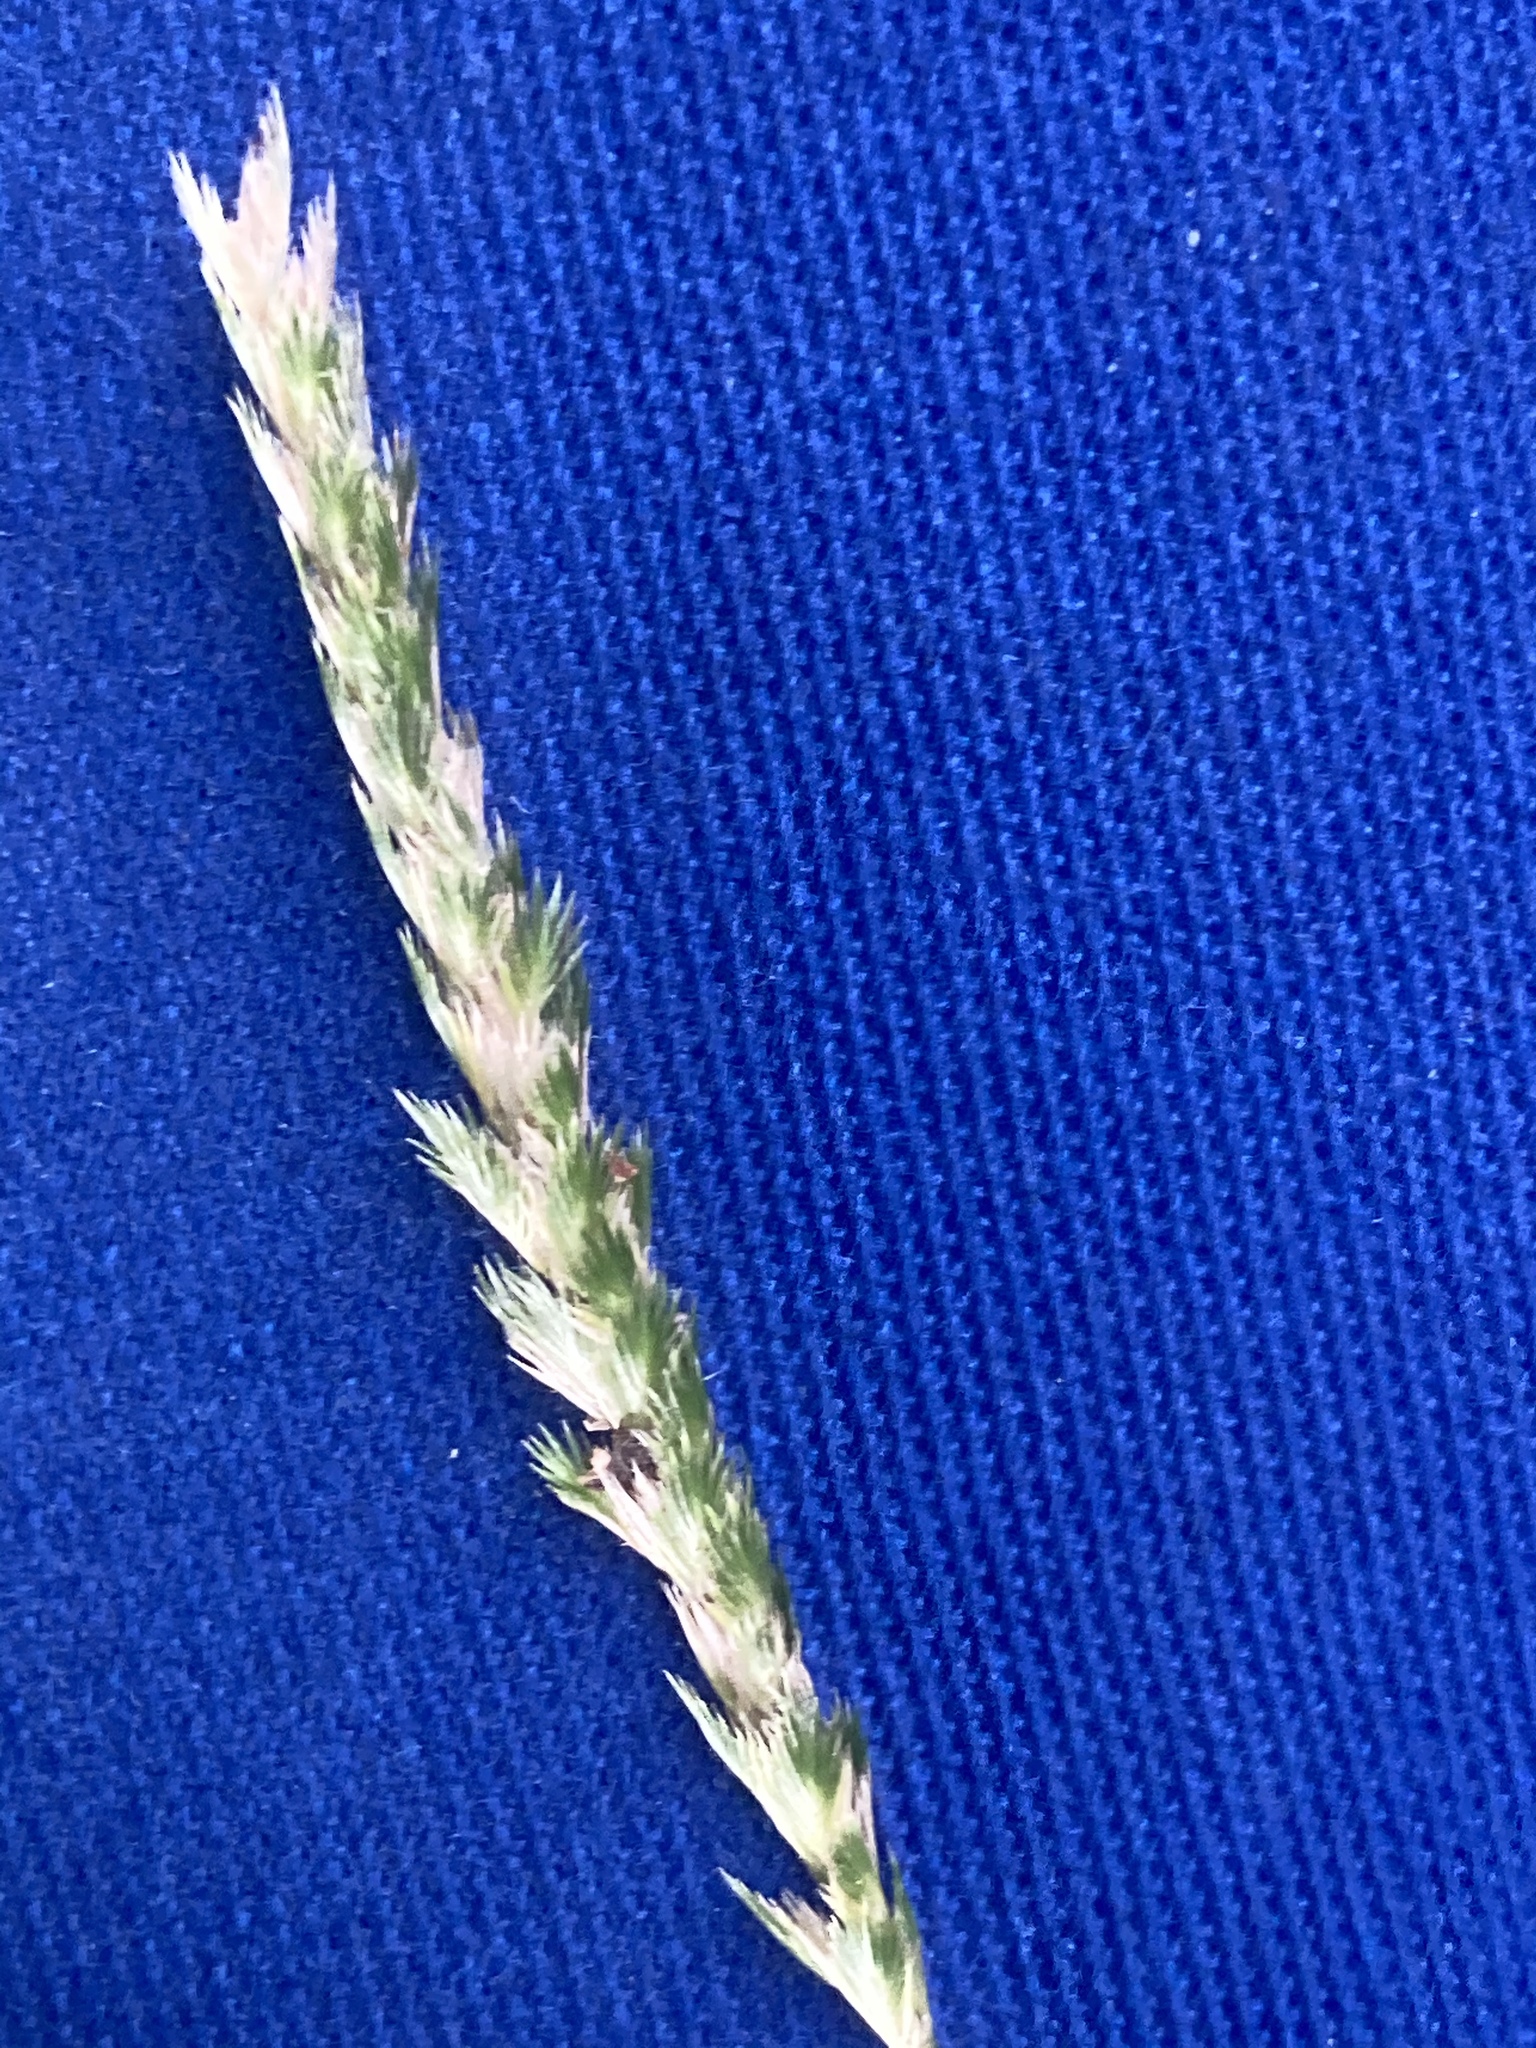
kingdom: Plantae
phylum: Tracheophyta
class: Liliopsida
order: Poales
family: Poaceae
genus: Cynosurus
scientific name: Cynosurus cristatus
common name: Crested dog's-tail
